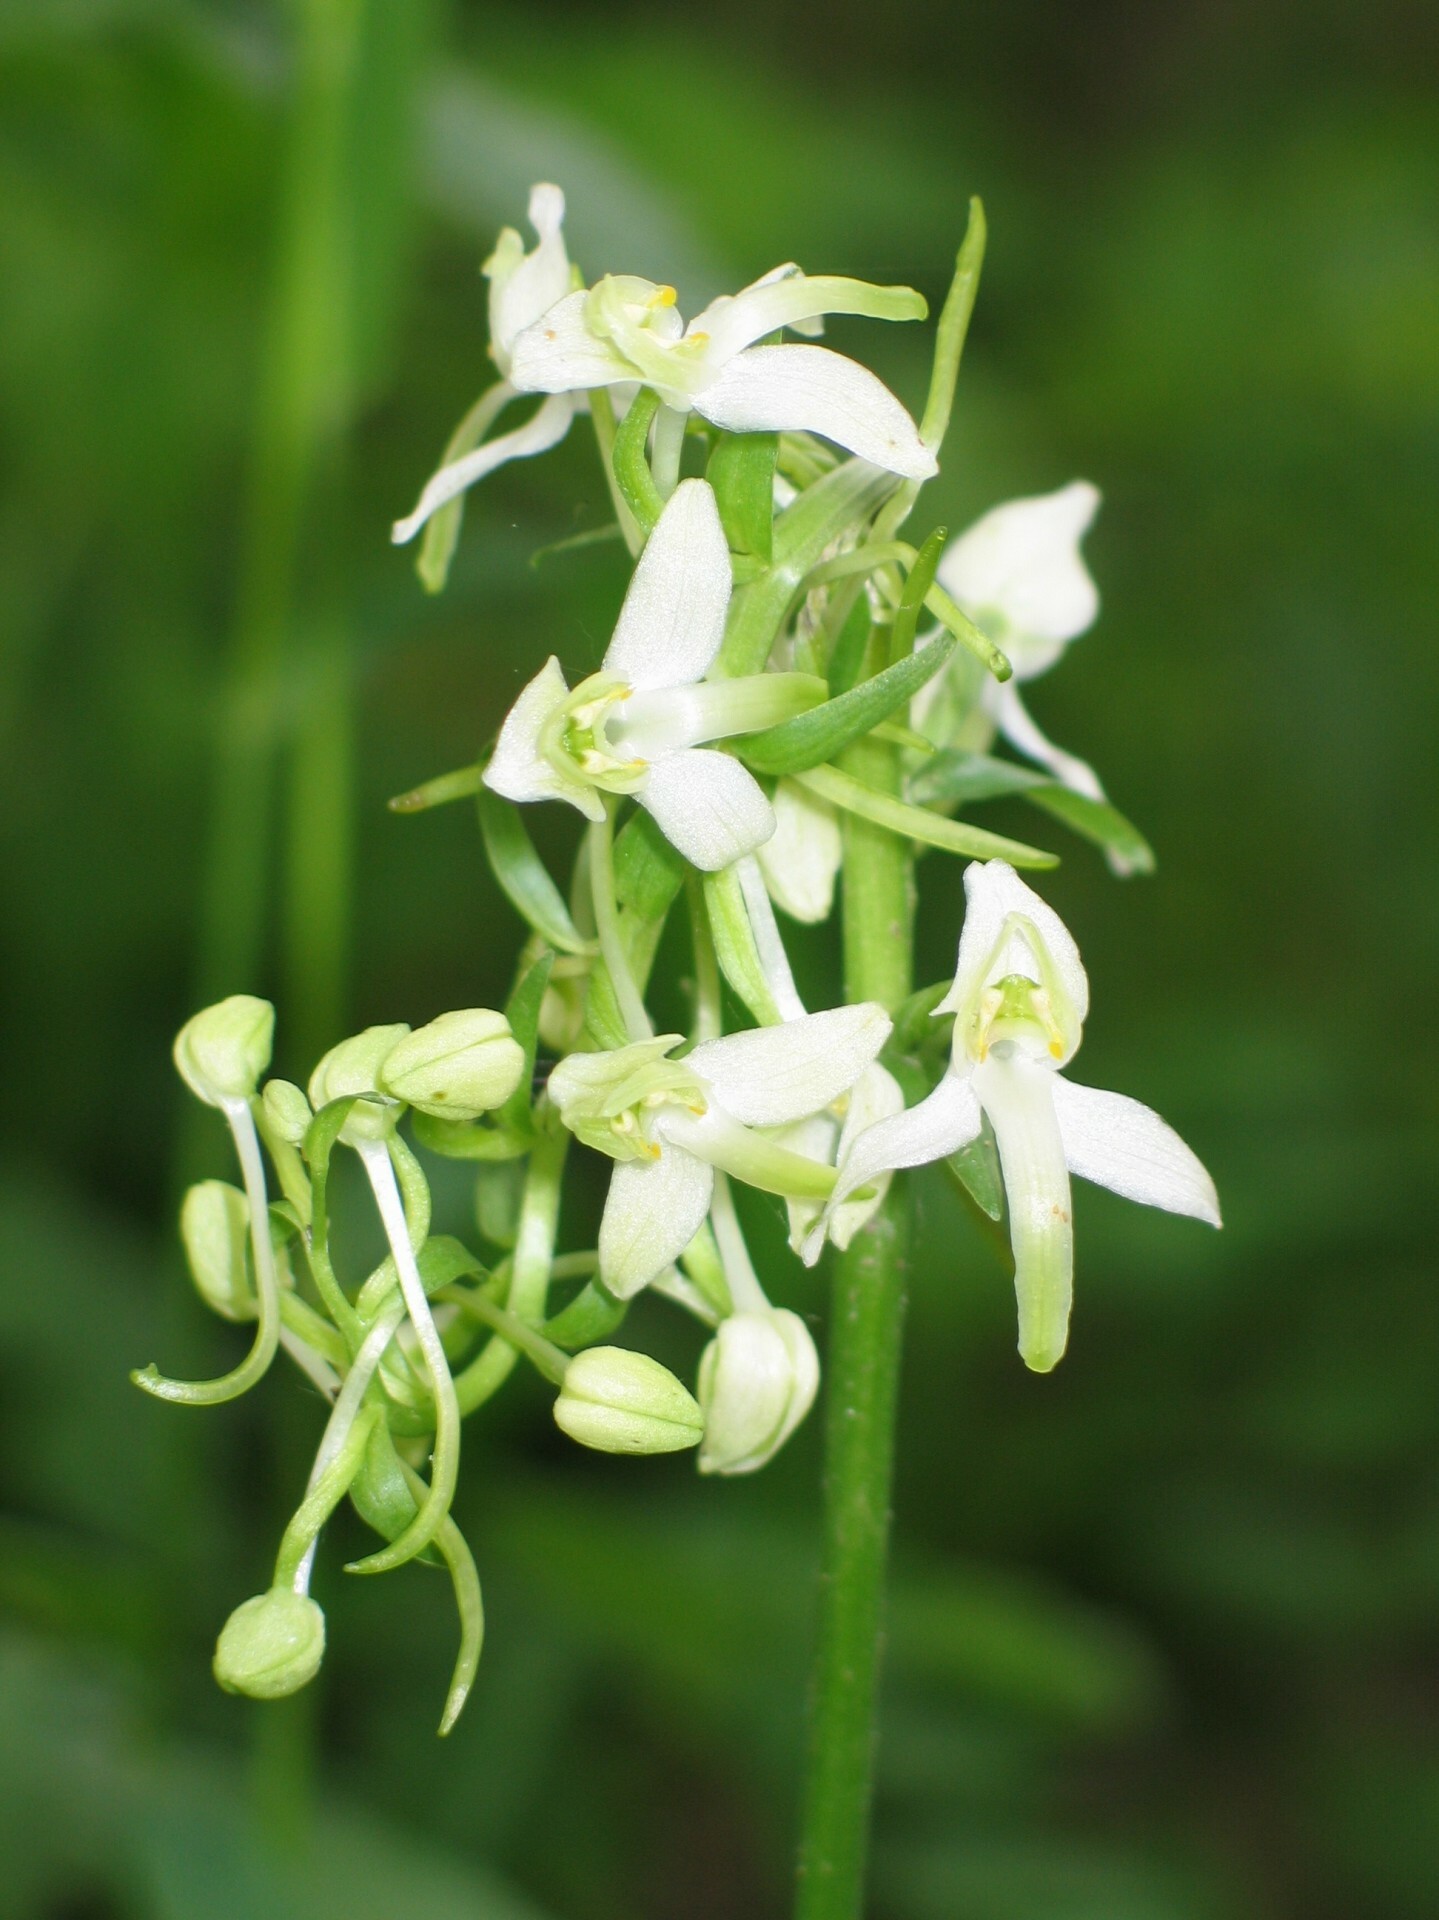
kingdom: Plantae
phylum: Tracheophyta
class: Liliopsida
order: Asparagales
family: Orchidaceae
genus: Platanthera
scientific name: Platanthera bifolia
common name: Lesser butterfly-orchid
